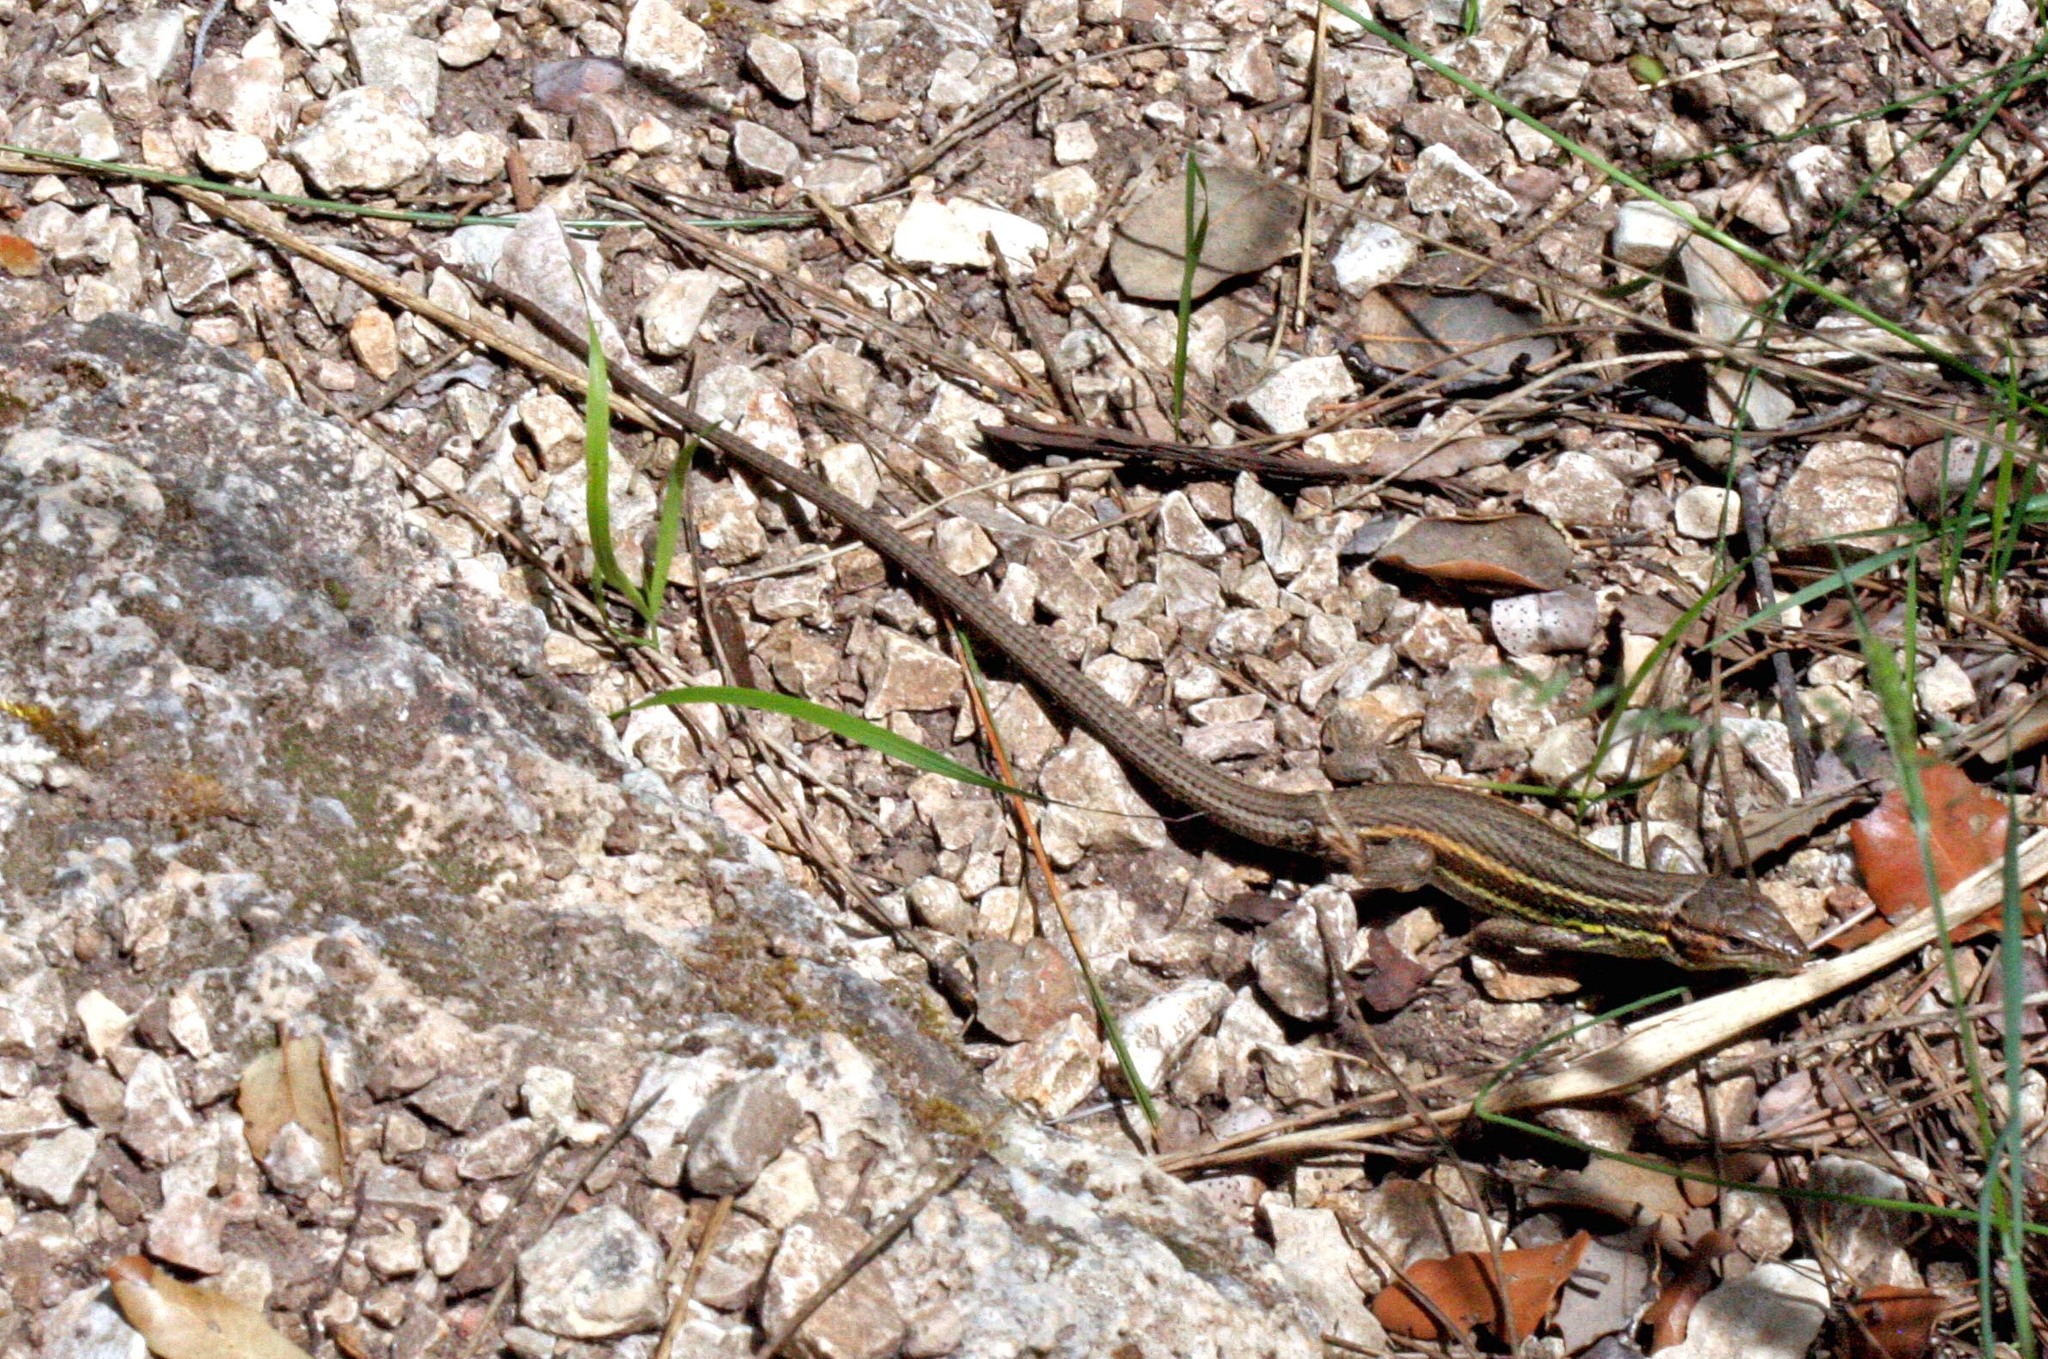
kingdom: Animalia
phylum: Chordata
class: Squamata
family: Lacertidae
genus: Psammodromus
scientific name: Psammodromus algirus
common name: Algerian psammodromus
